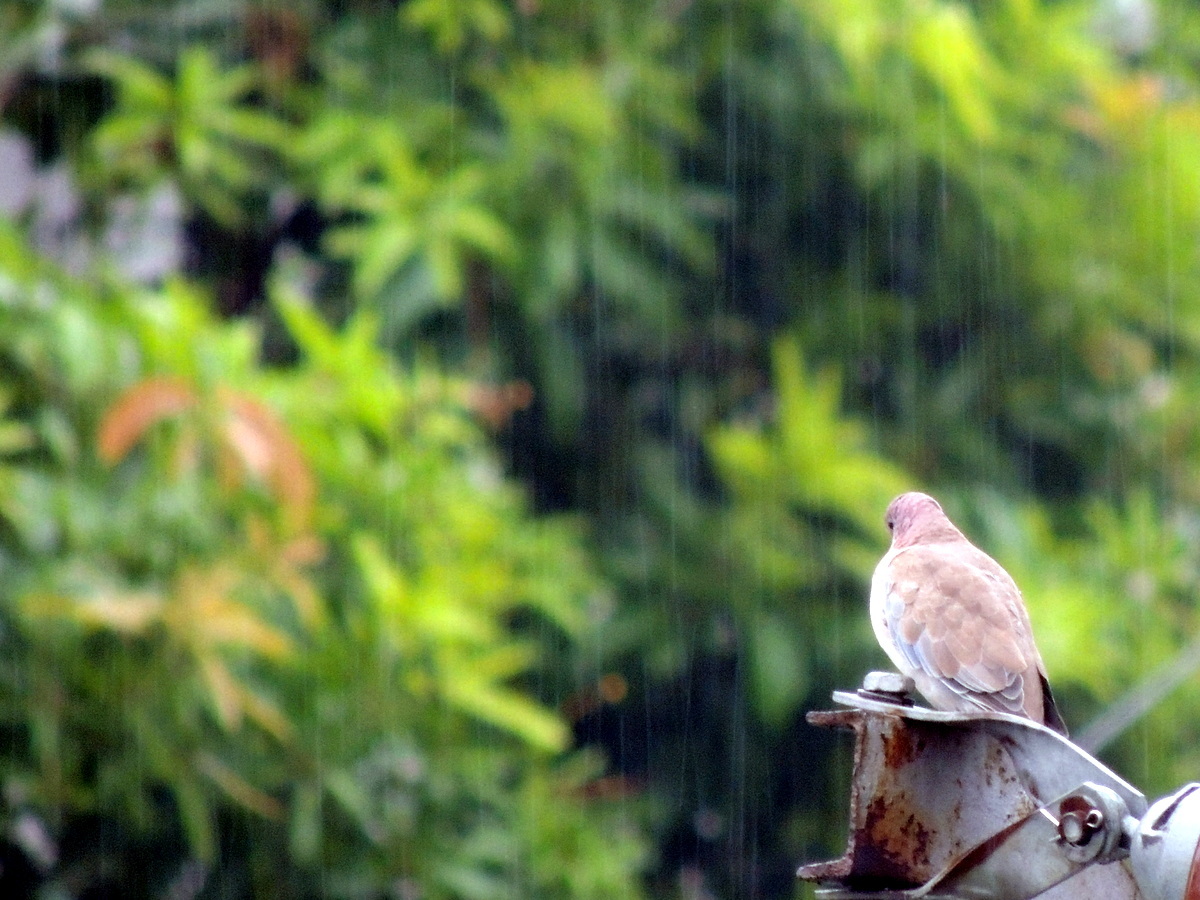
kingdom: Animalia
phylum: Chordata
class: Aves
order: Columbiformes
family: Columbidae
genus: Spilopelia
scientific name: Spilopelia senegalensis
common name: Laughing dove
